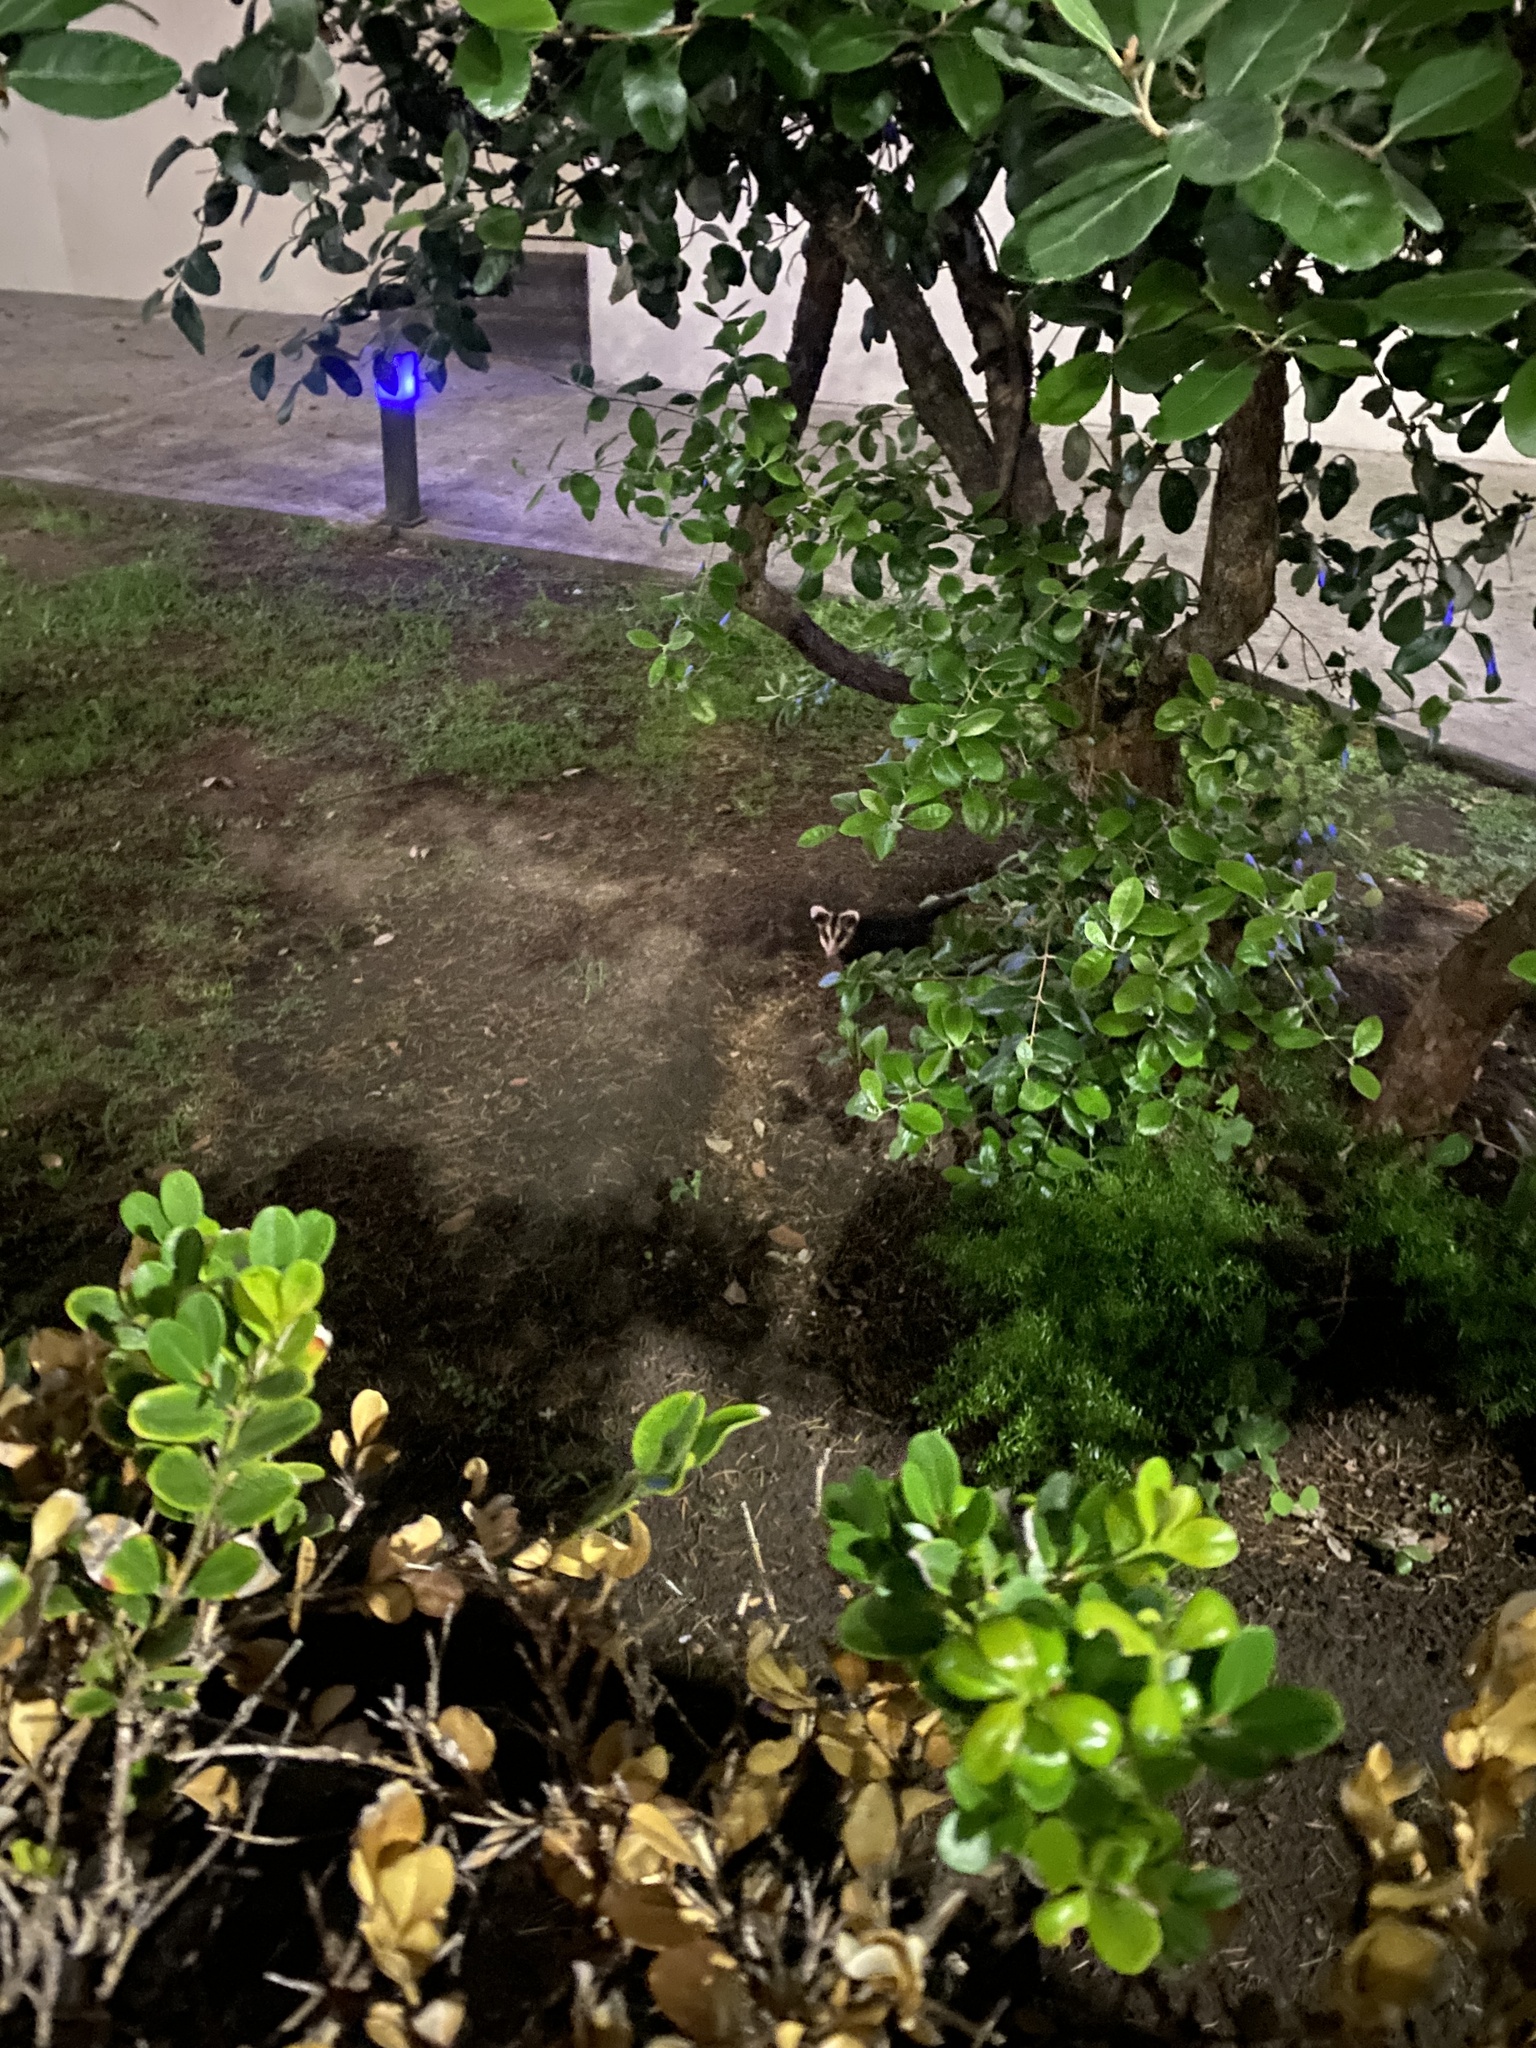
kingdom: Animalia
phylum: Chordata
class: Mammalia
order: Didelphimorphia
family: Didelphidae
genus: Didelphis
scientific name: Didelphis albiventris
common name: White-eared opossum
